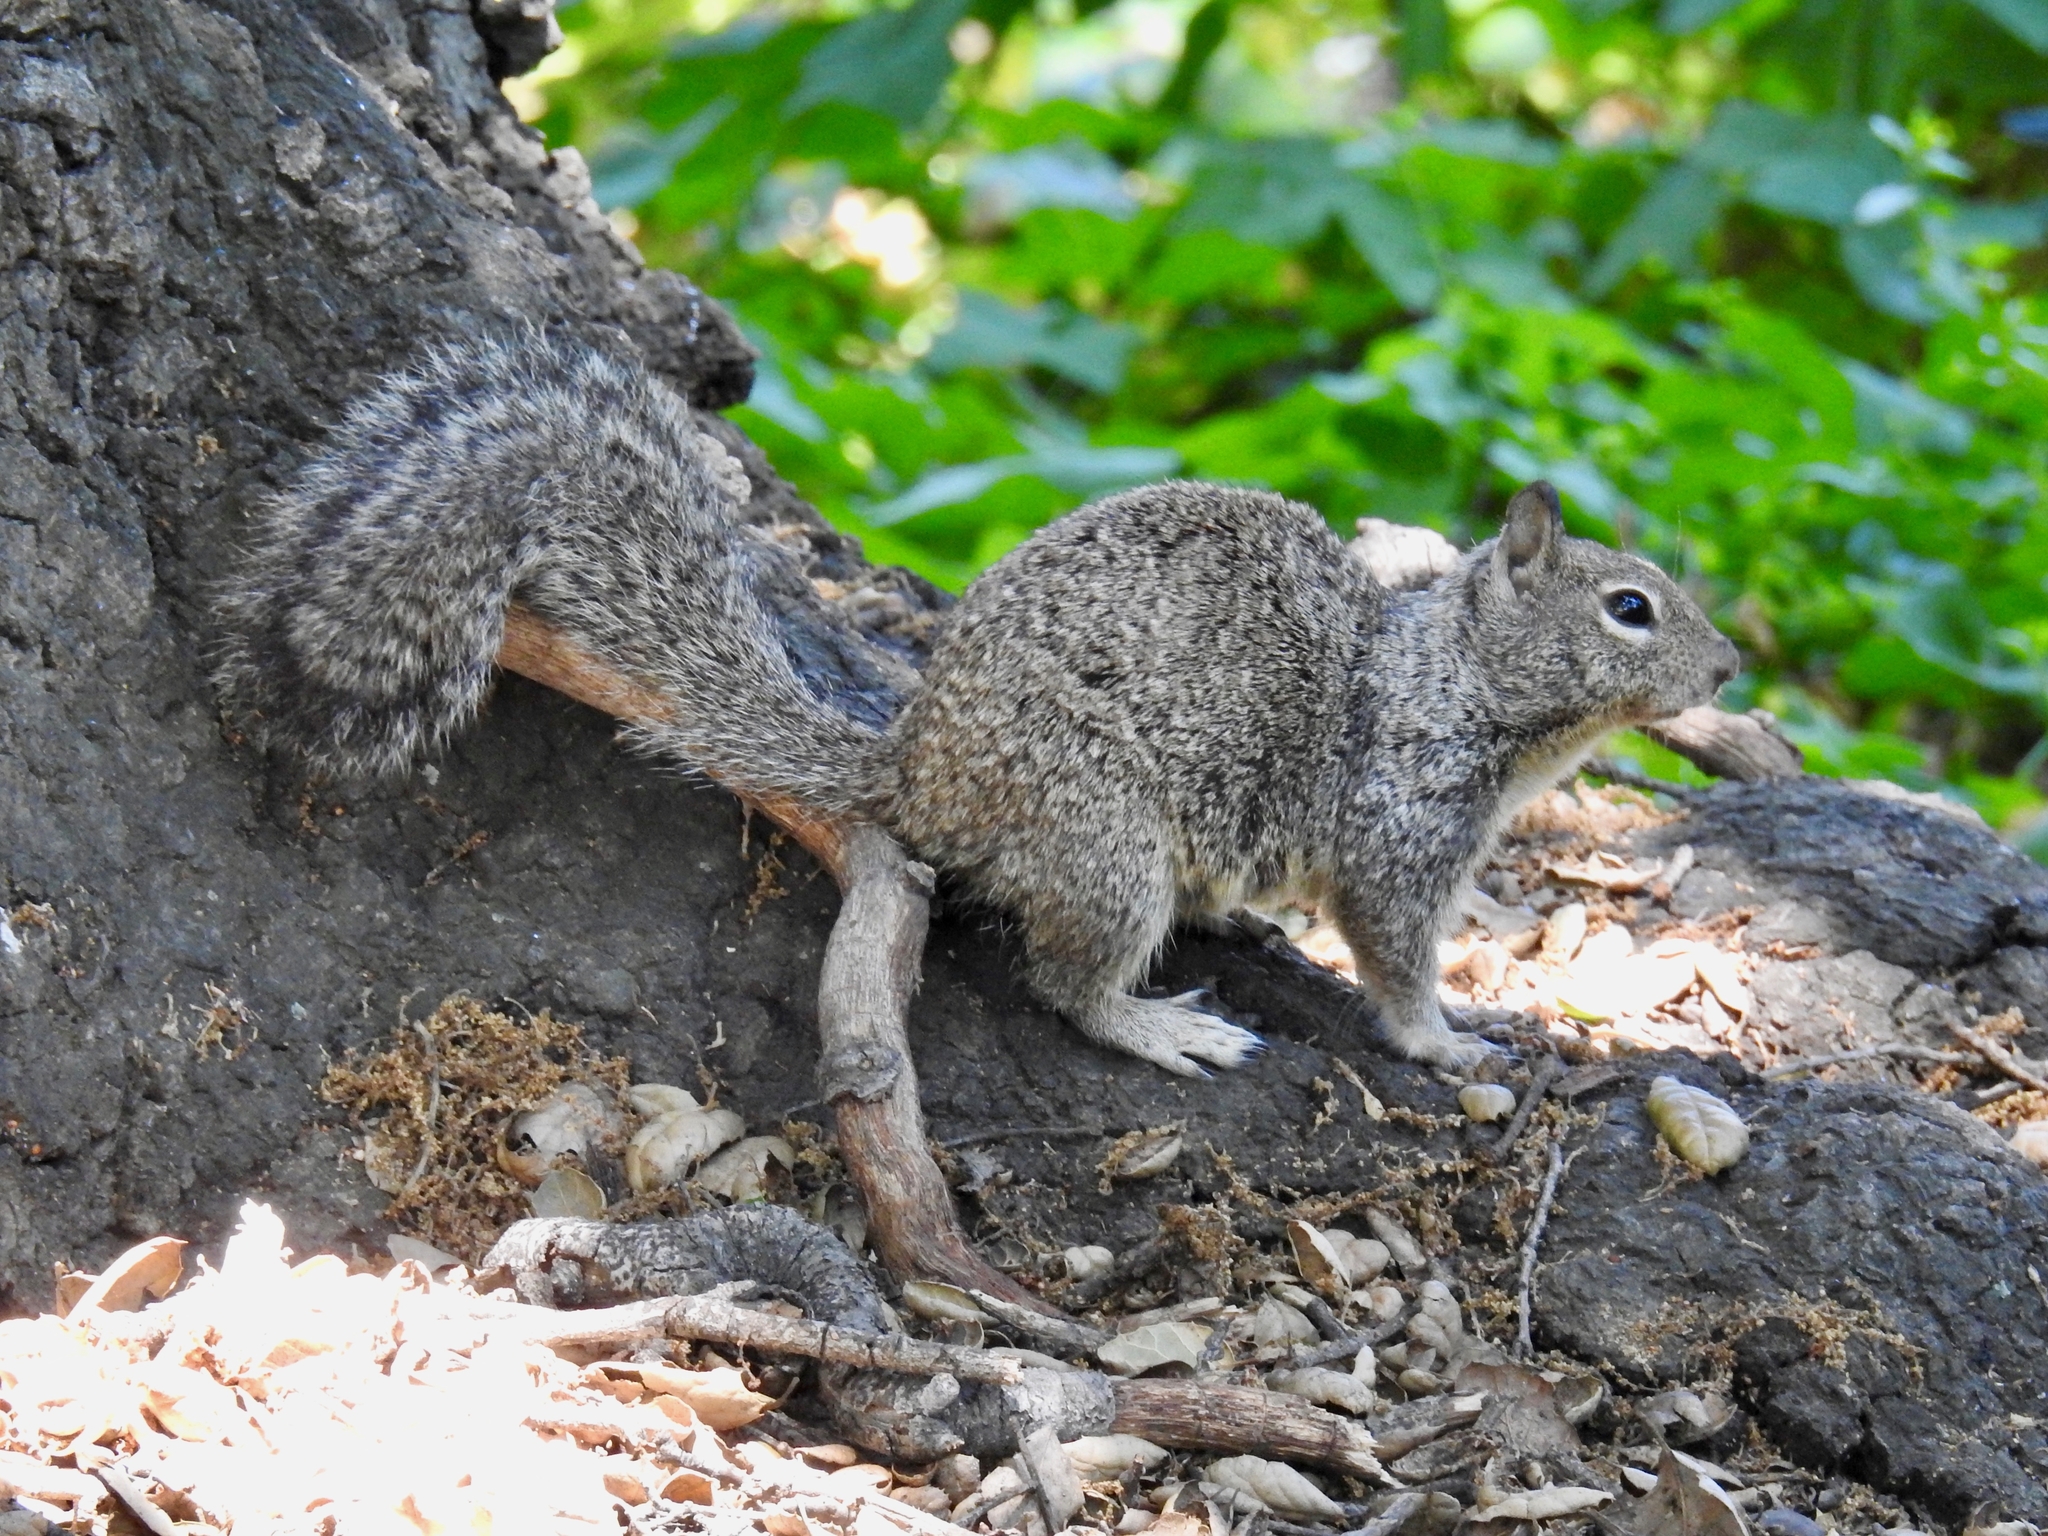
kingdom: Animalia
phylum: Chordata
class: Mammalia
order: Rodentia
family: Sciuridae
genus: Otospermophilus
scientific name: Otospermophilus beecheyi
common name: California ground squirrel
